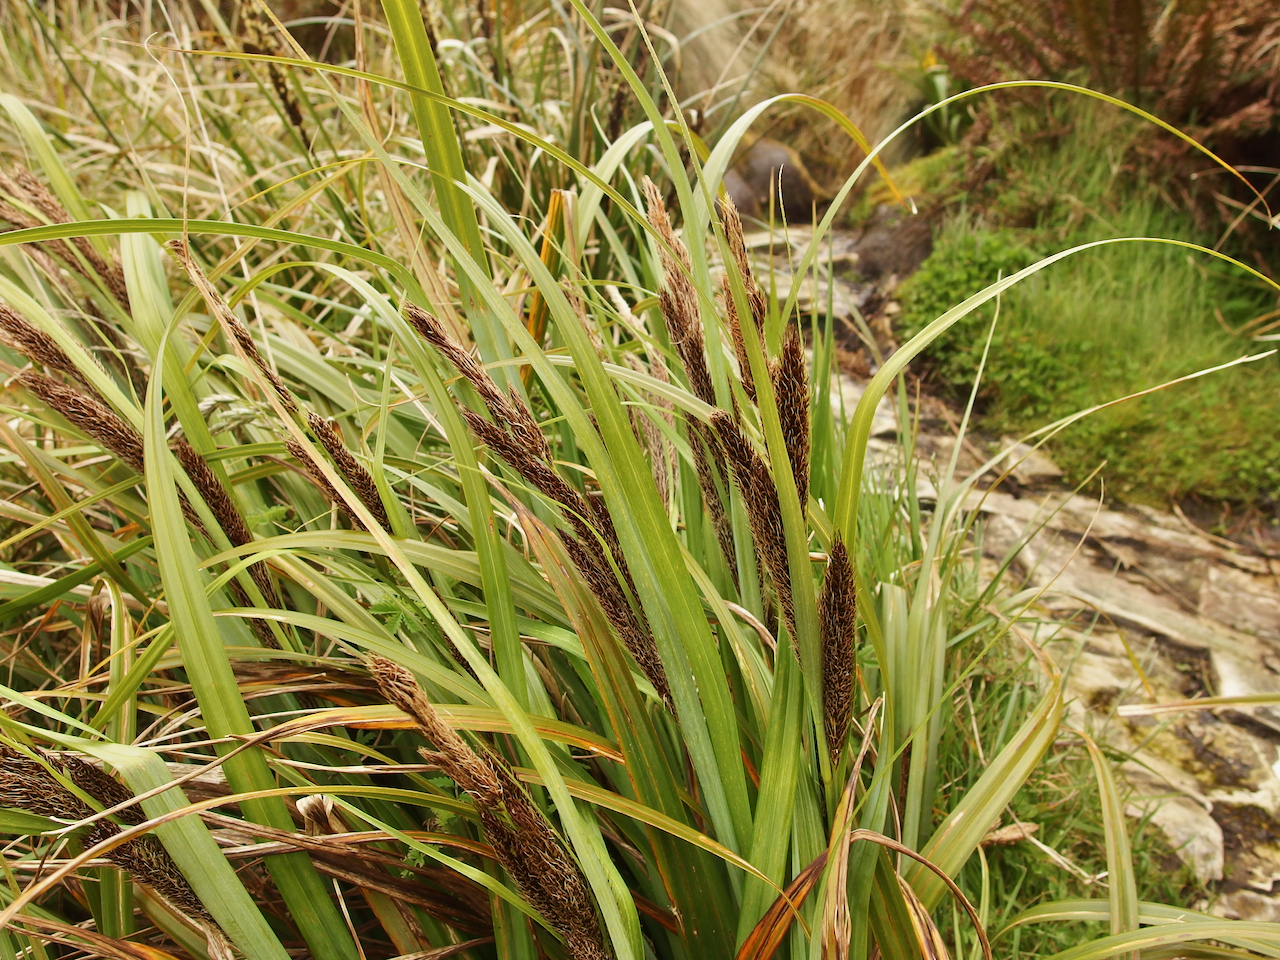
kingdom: Plantae
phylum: Tracheophyta
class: Liliopsida
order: Poales
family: Cyperaceae
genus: Carex
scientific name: Carex trifida
